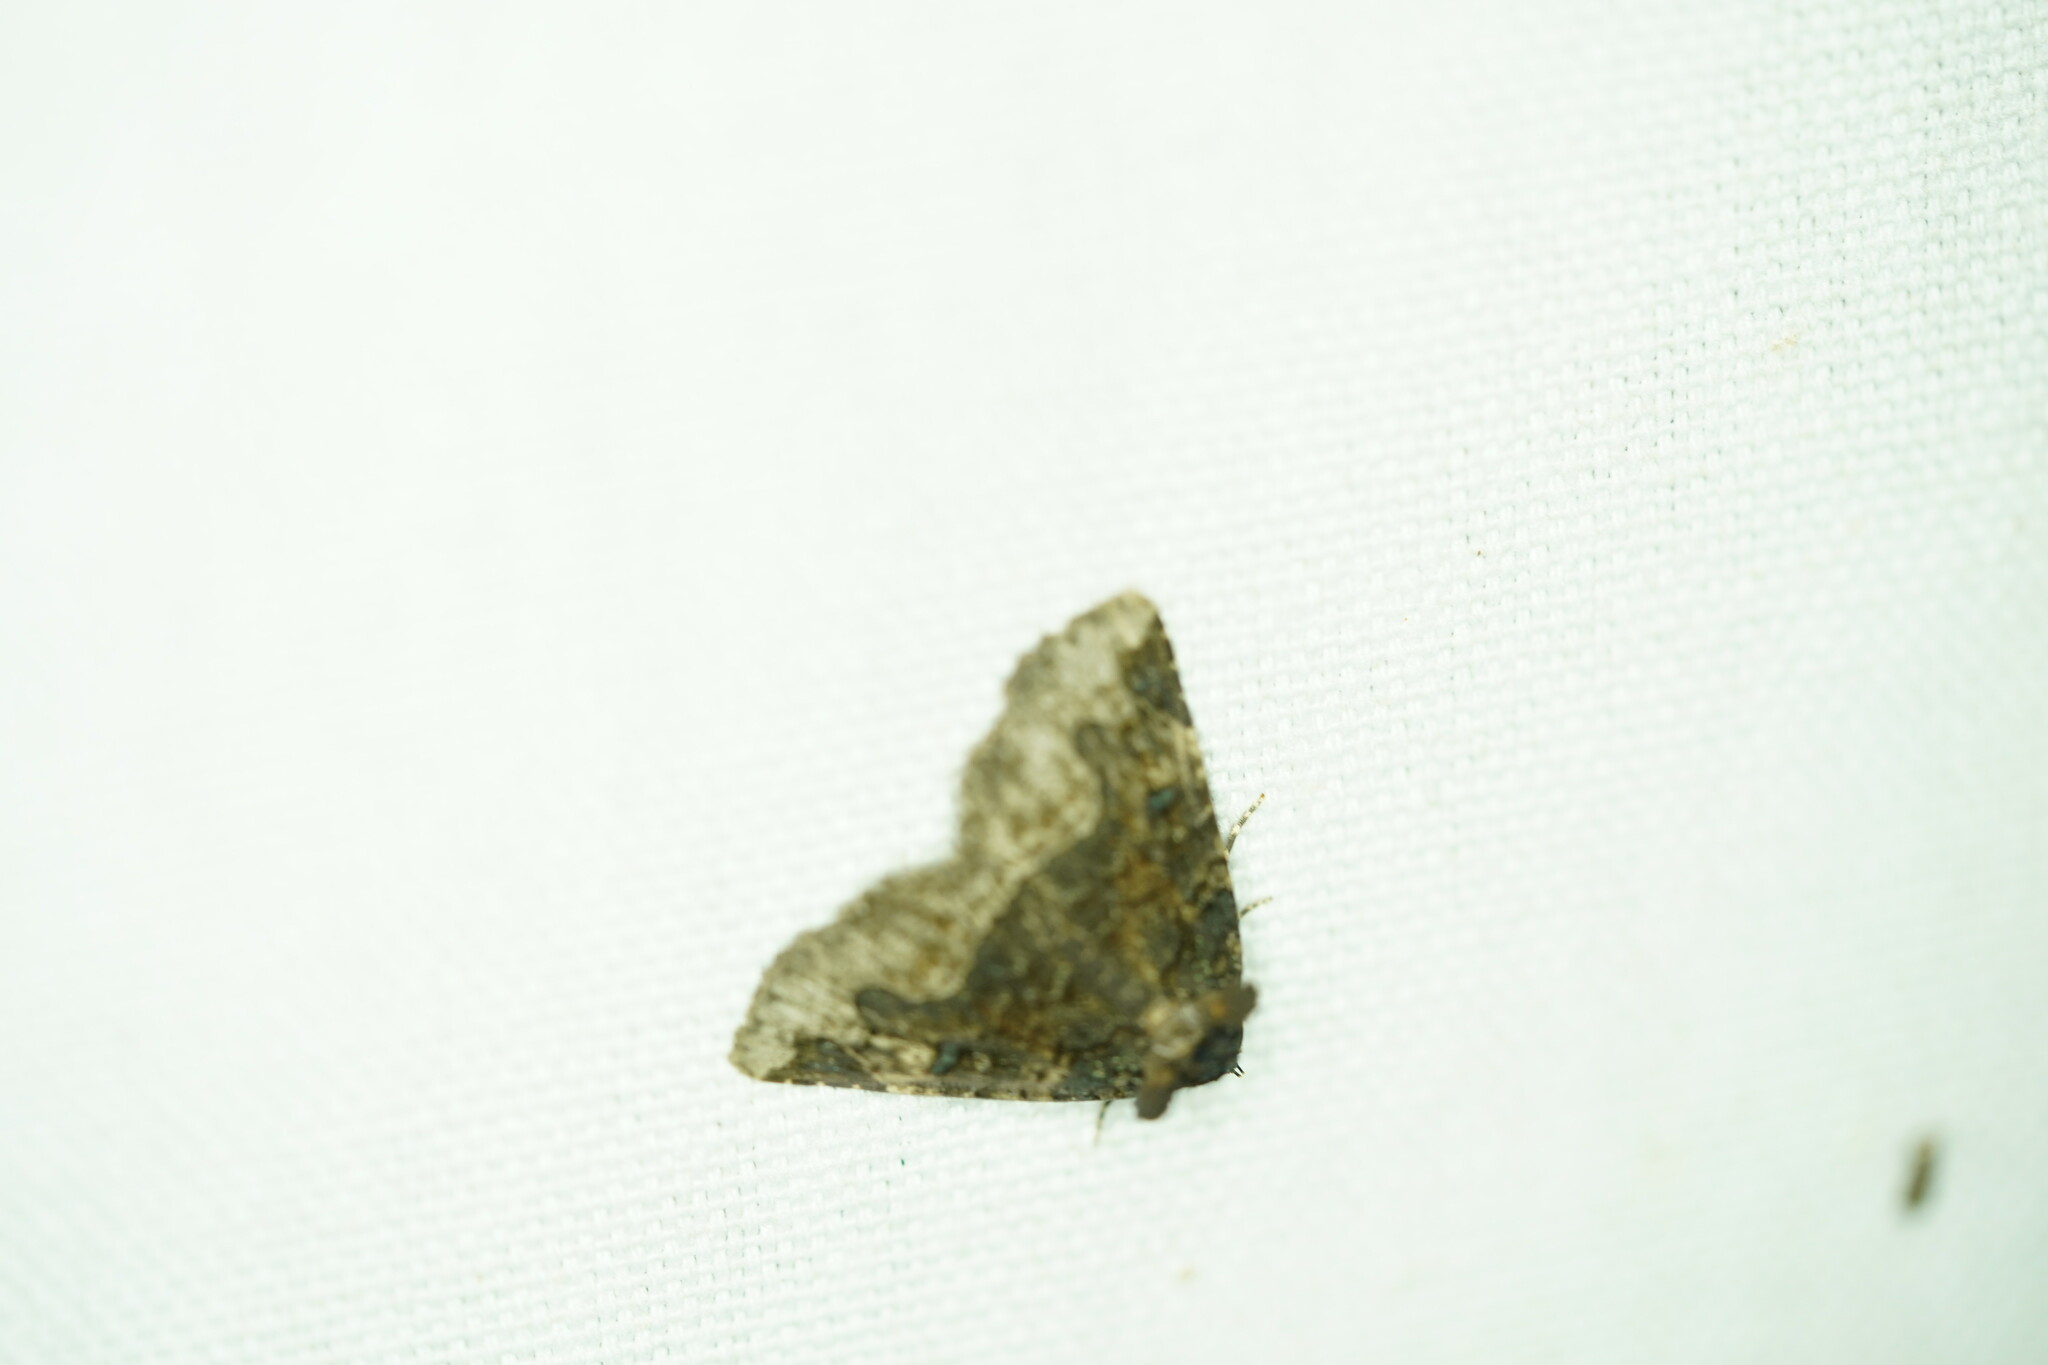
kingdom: Animalia
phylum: Arthropoda
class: Insecta
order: Lepidoptera
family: Erebidae
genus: Zale
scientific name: Zale horrida
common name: Horrid zale moth
